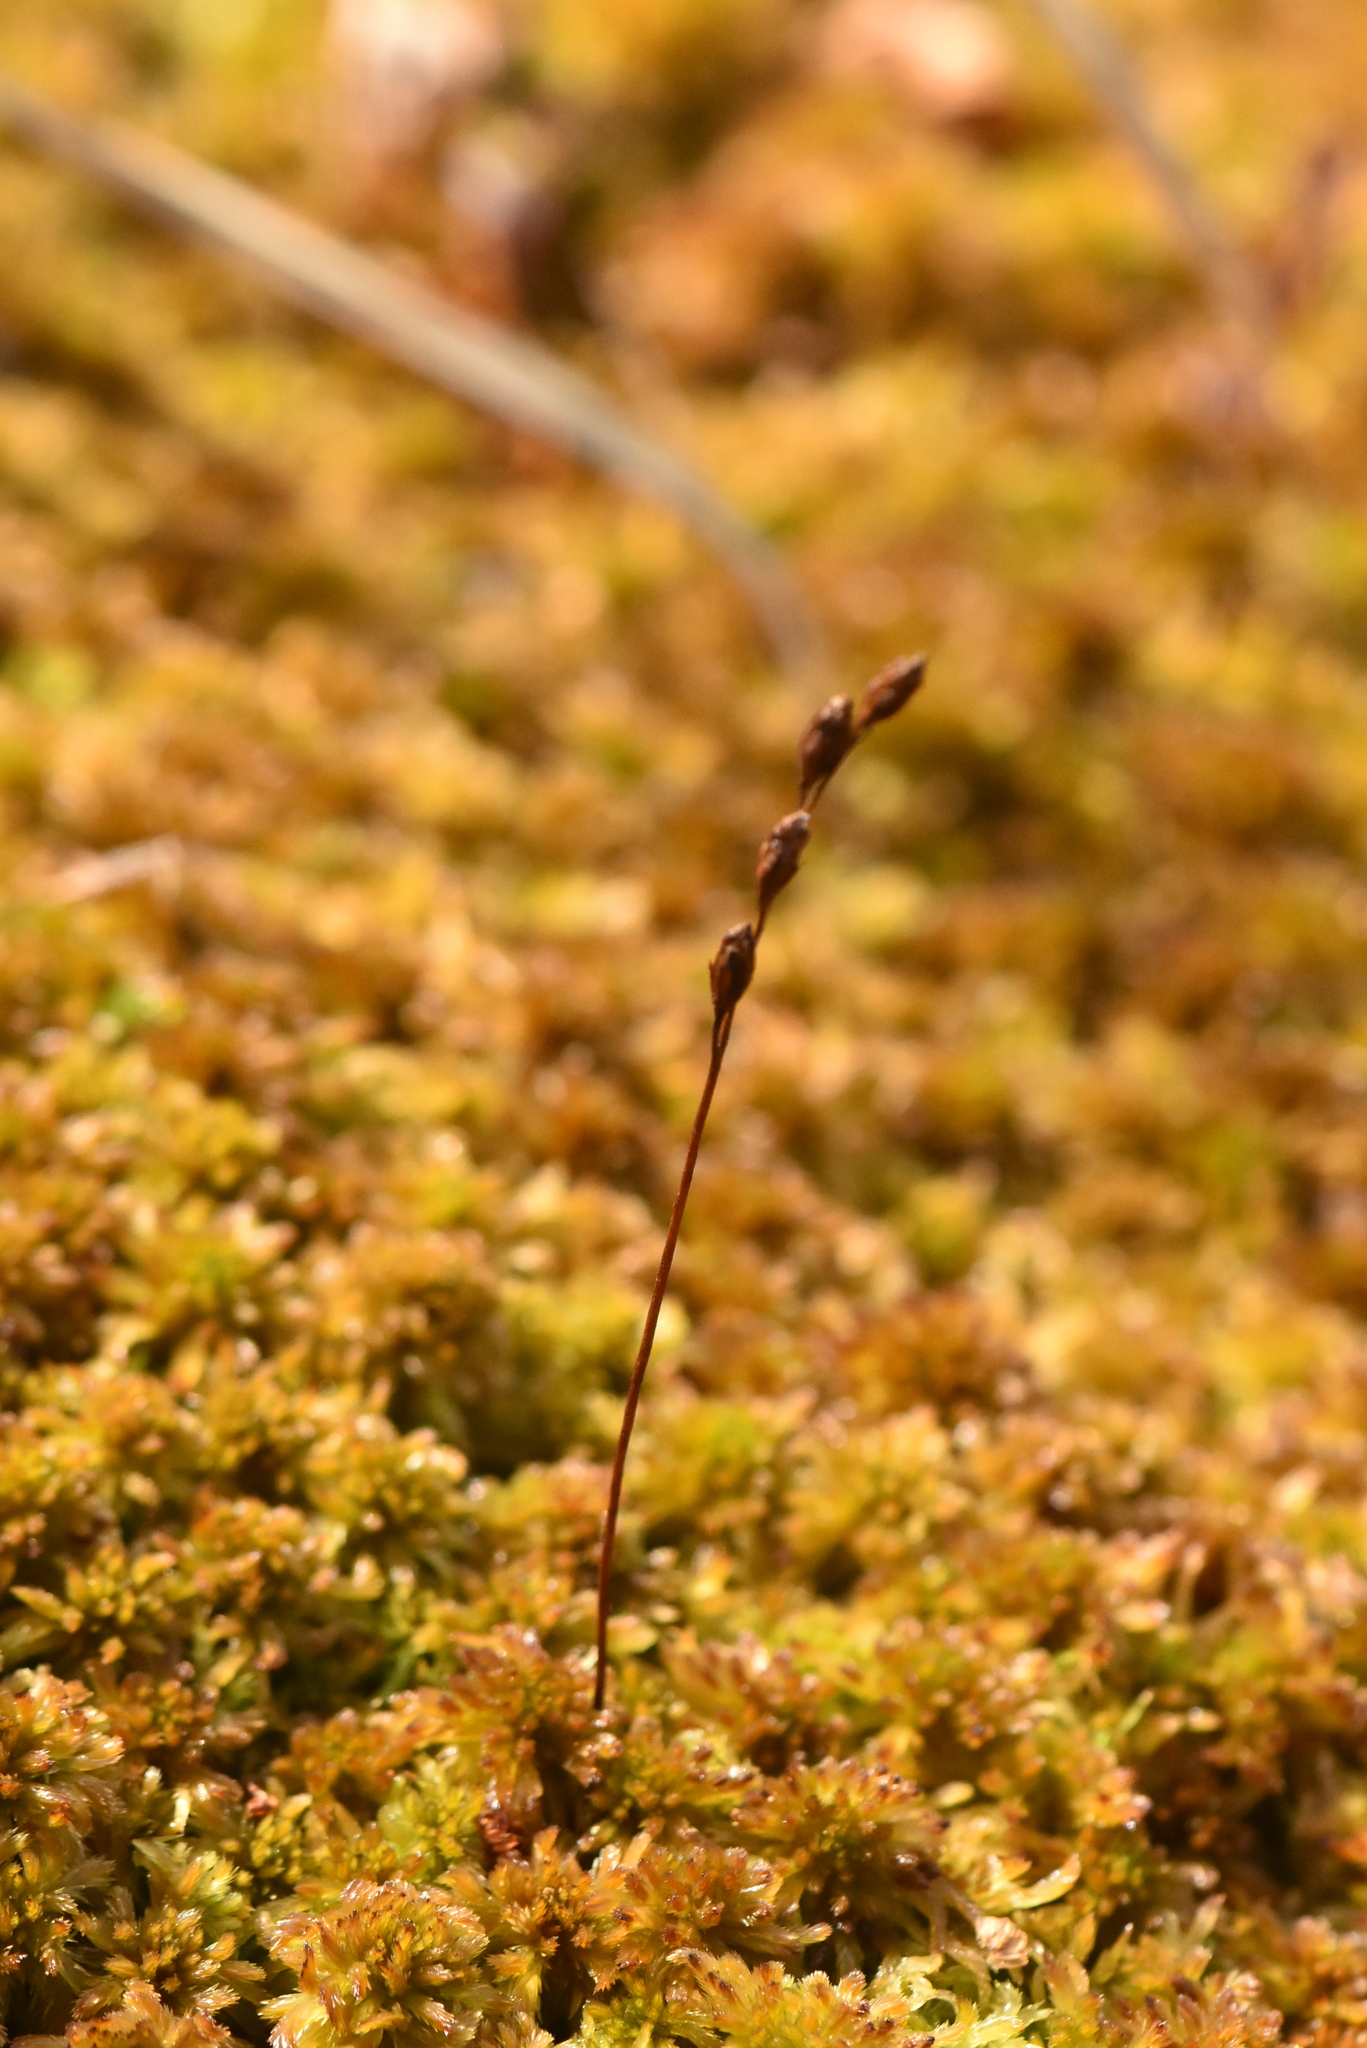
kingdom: Plantae
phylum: Tracheophyta
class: Magnoliopsida
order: Caryophyllales
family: Droseraceae
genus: Drosera
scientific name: Drosera rotundifolia
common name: Round-leaved sundew
